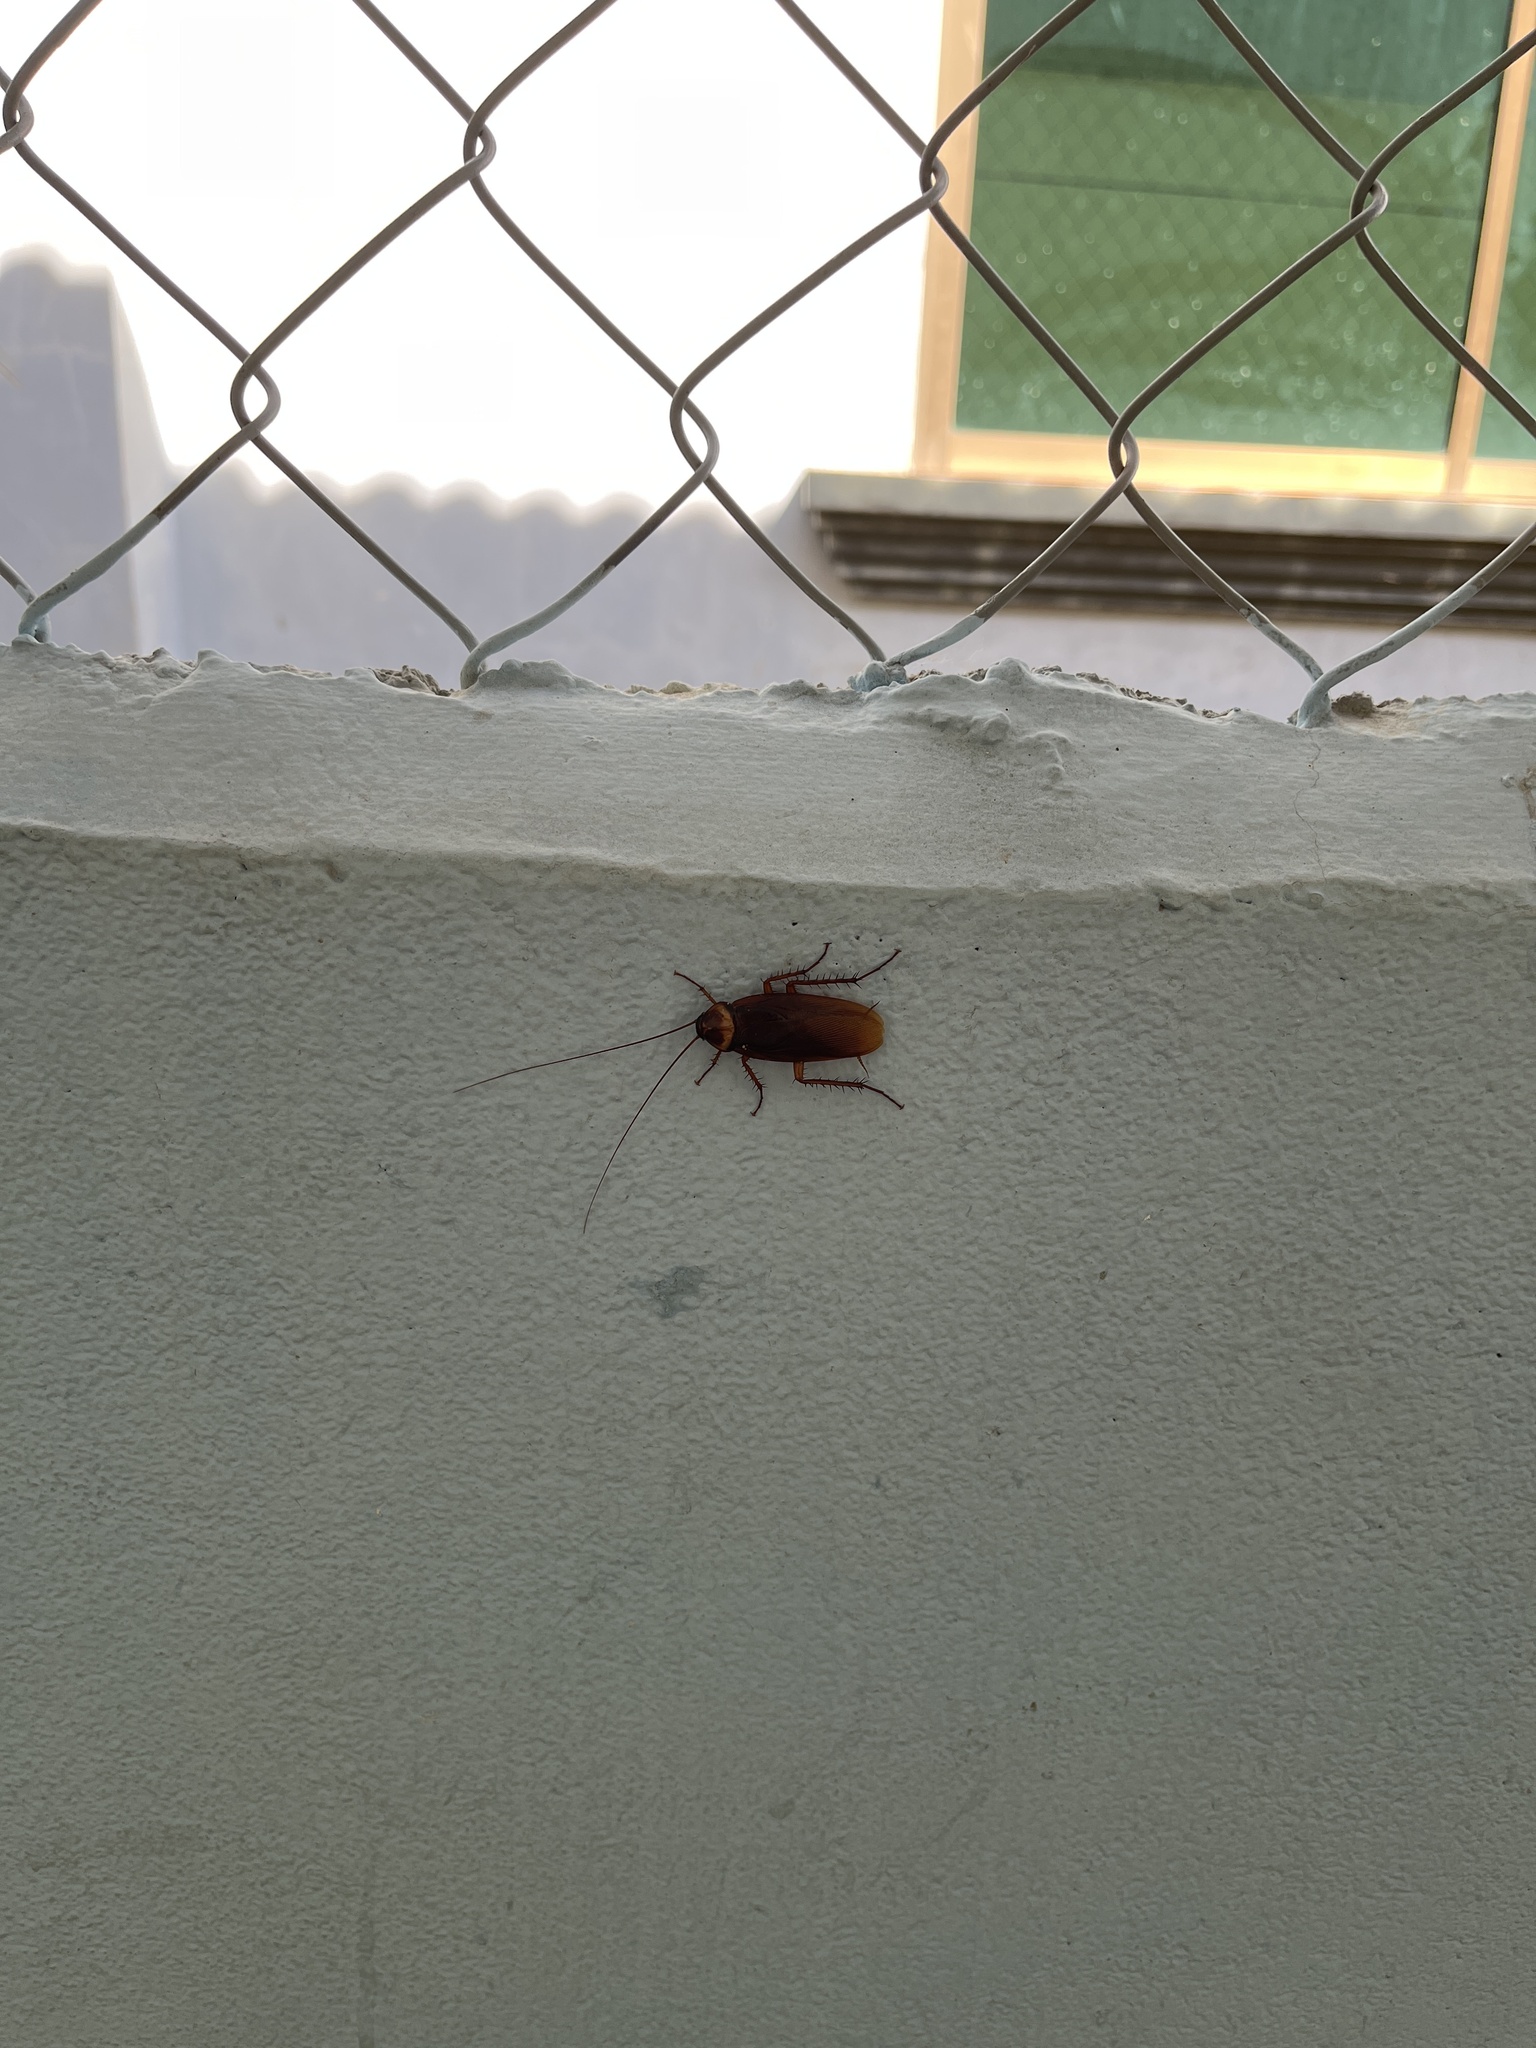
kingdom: Animalia
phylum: Arthropoda
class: Insecta
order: Blattodea
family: Blattidae
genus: Periplaneta
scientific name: Periplaneta americana
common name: American cockroach
